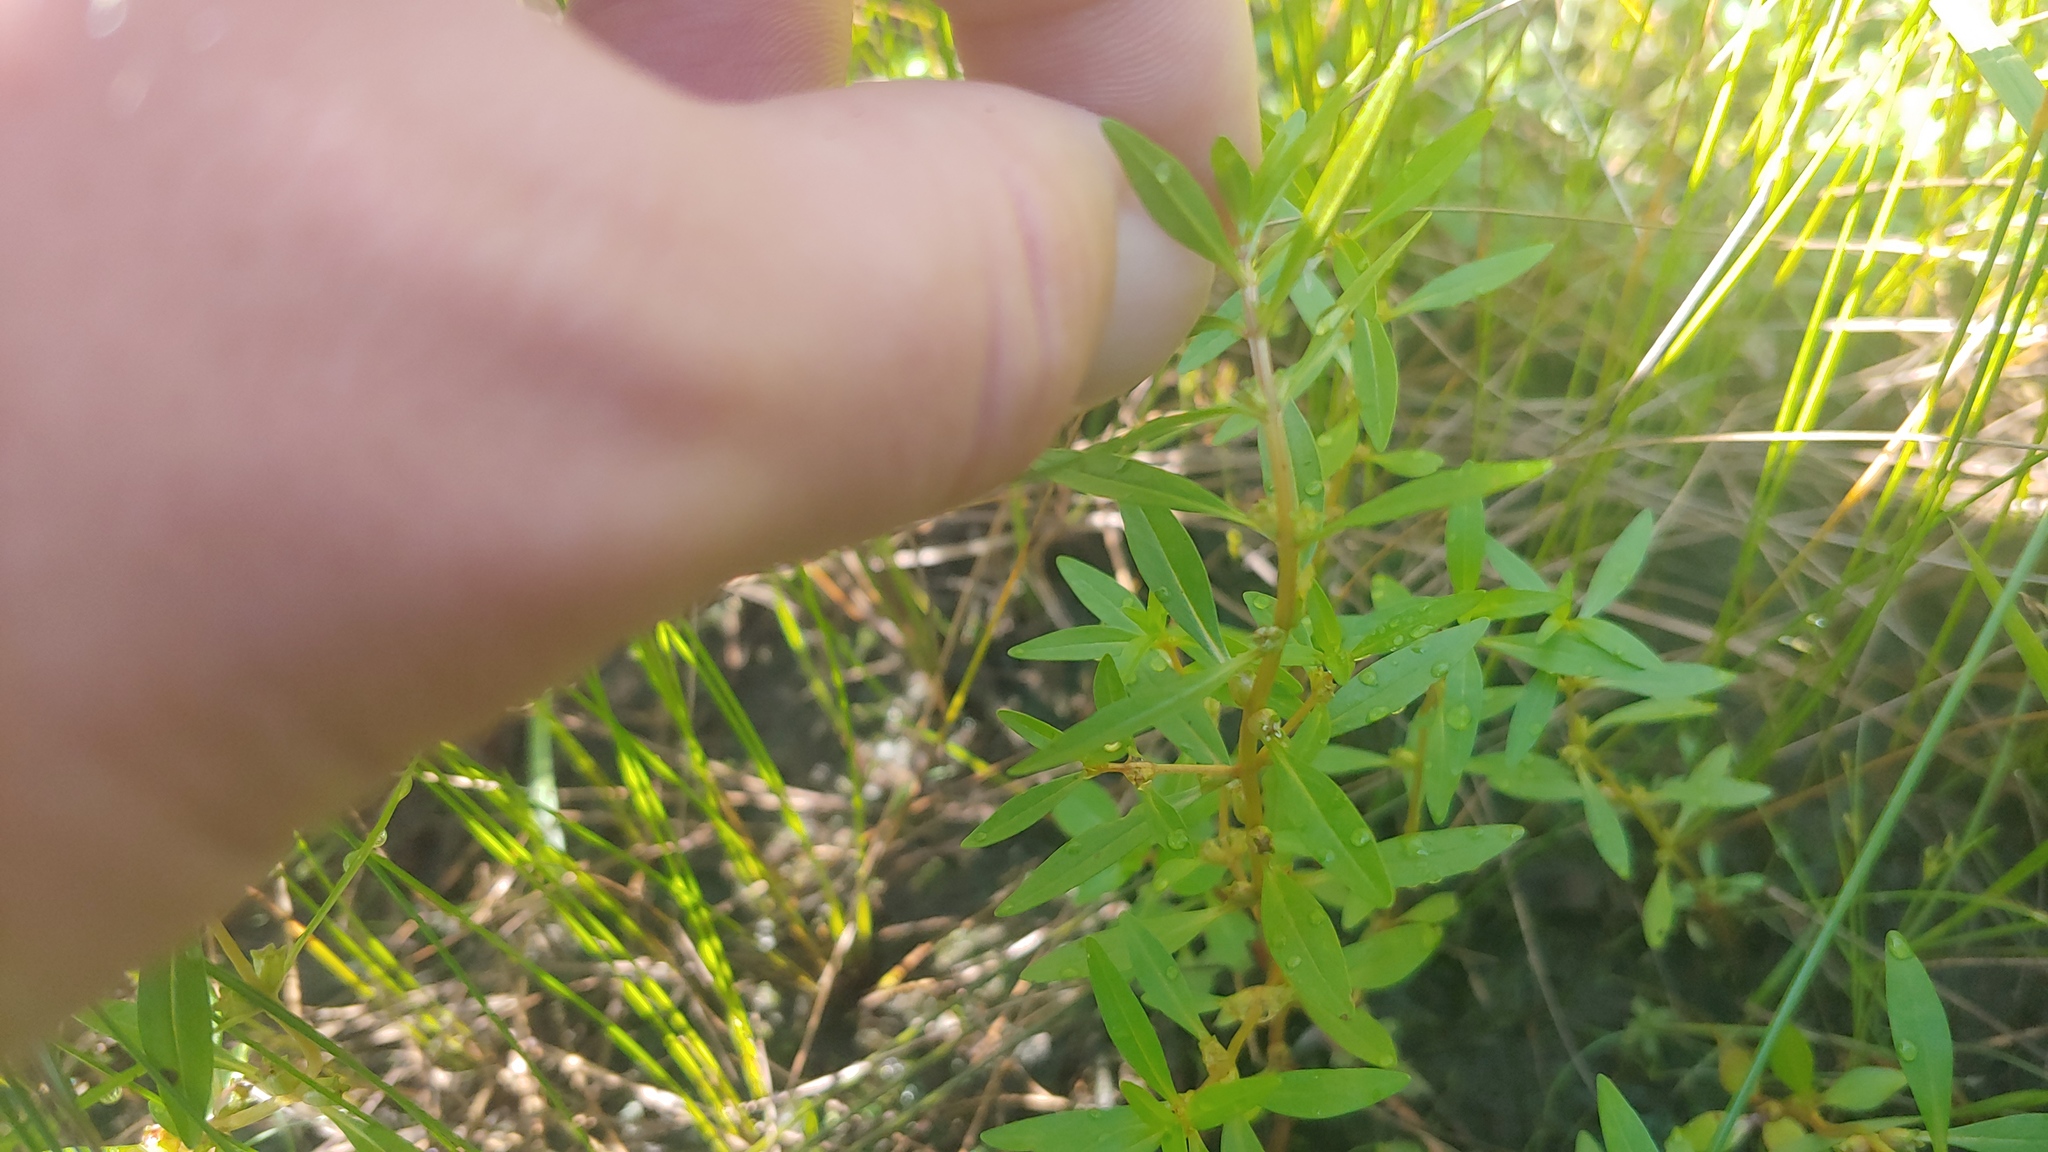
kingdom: Plantae
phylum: Tracheophyta
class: Magnoliopsida
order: Myrtales
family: Lythraceae
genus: Rotala
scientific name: Rotala ramosior
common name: Lowland rotala
